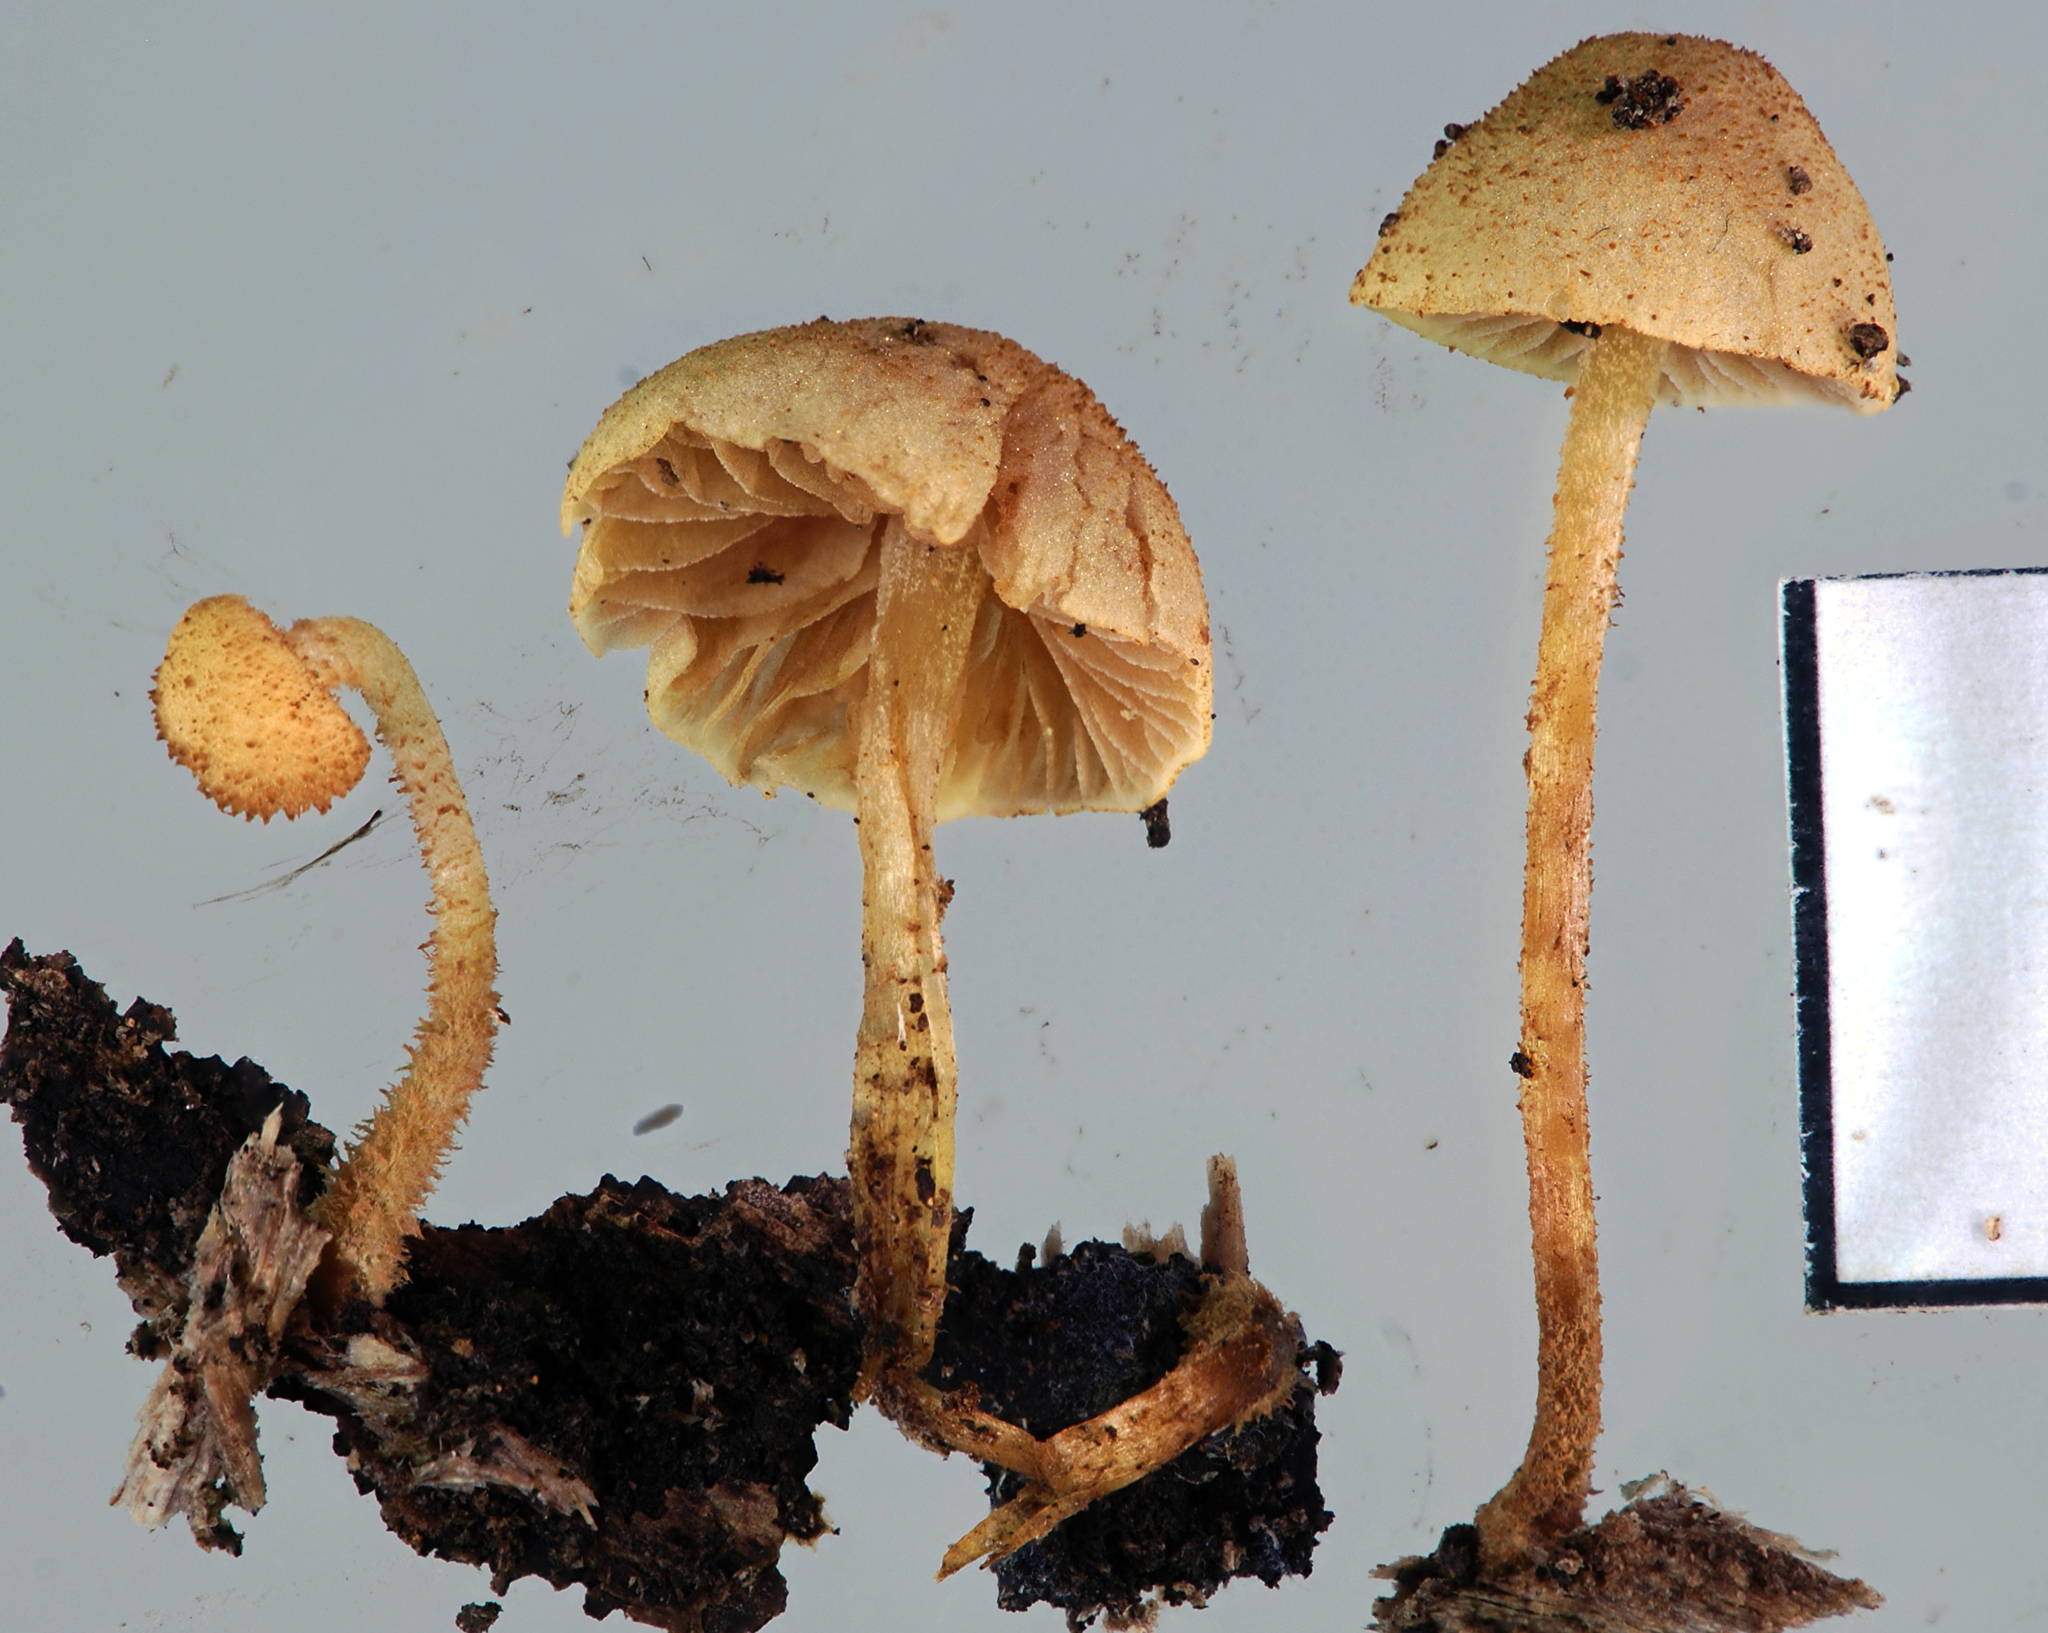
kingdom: Fungi
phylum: Basidiomycota
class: Agaricomycetes
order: Agaricales
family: Tubariaceae
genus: Flammulaster
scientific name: Flammulaster ciliatus
